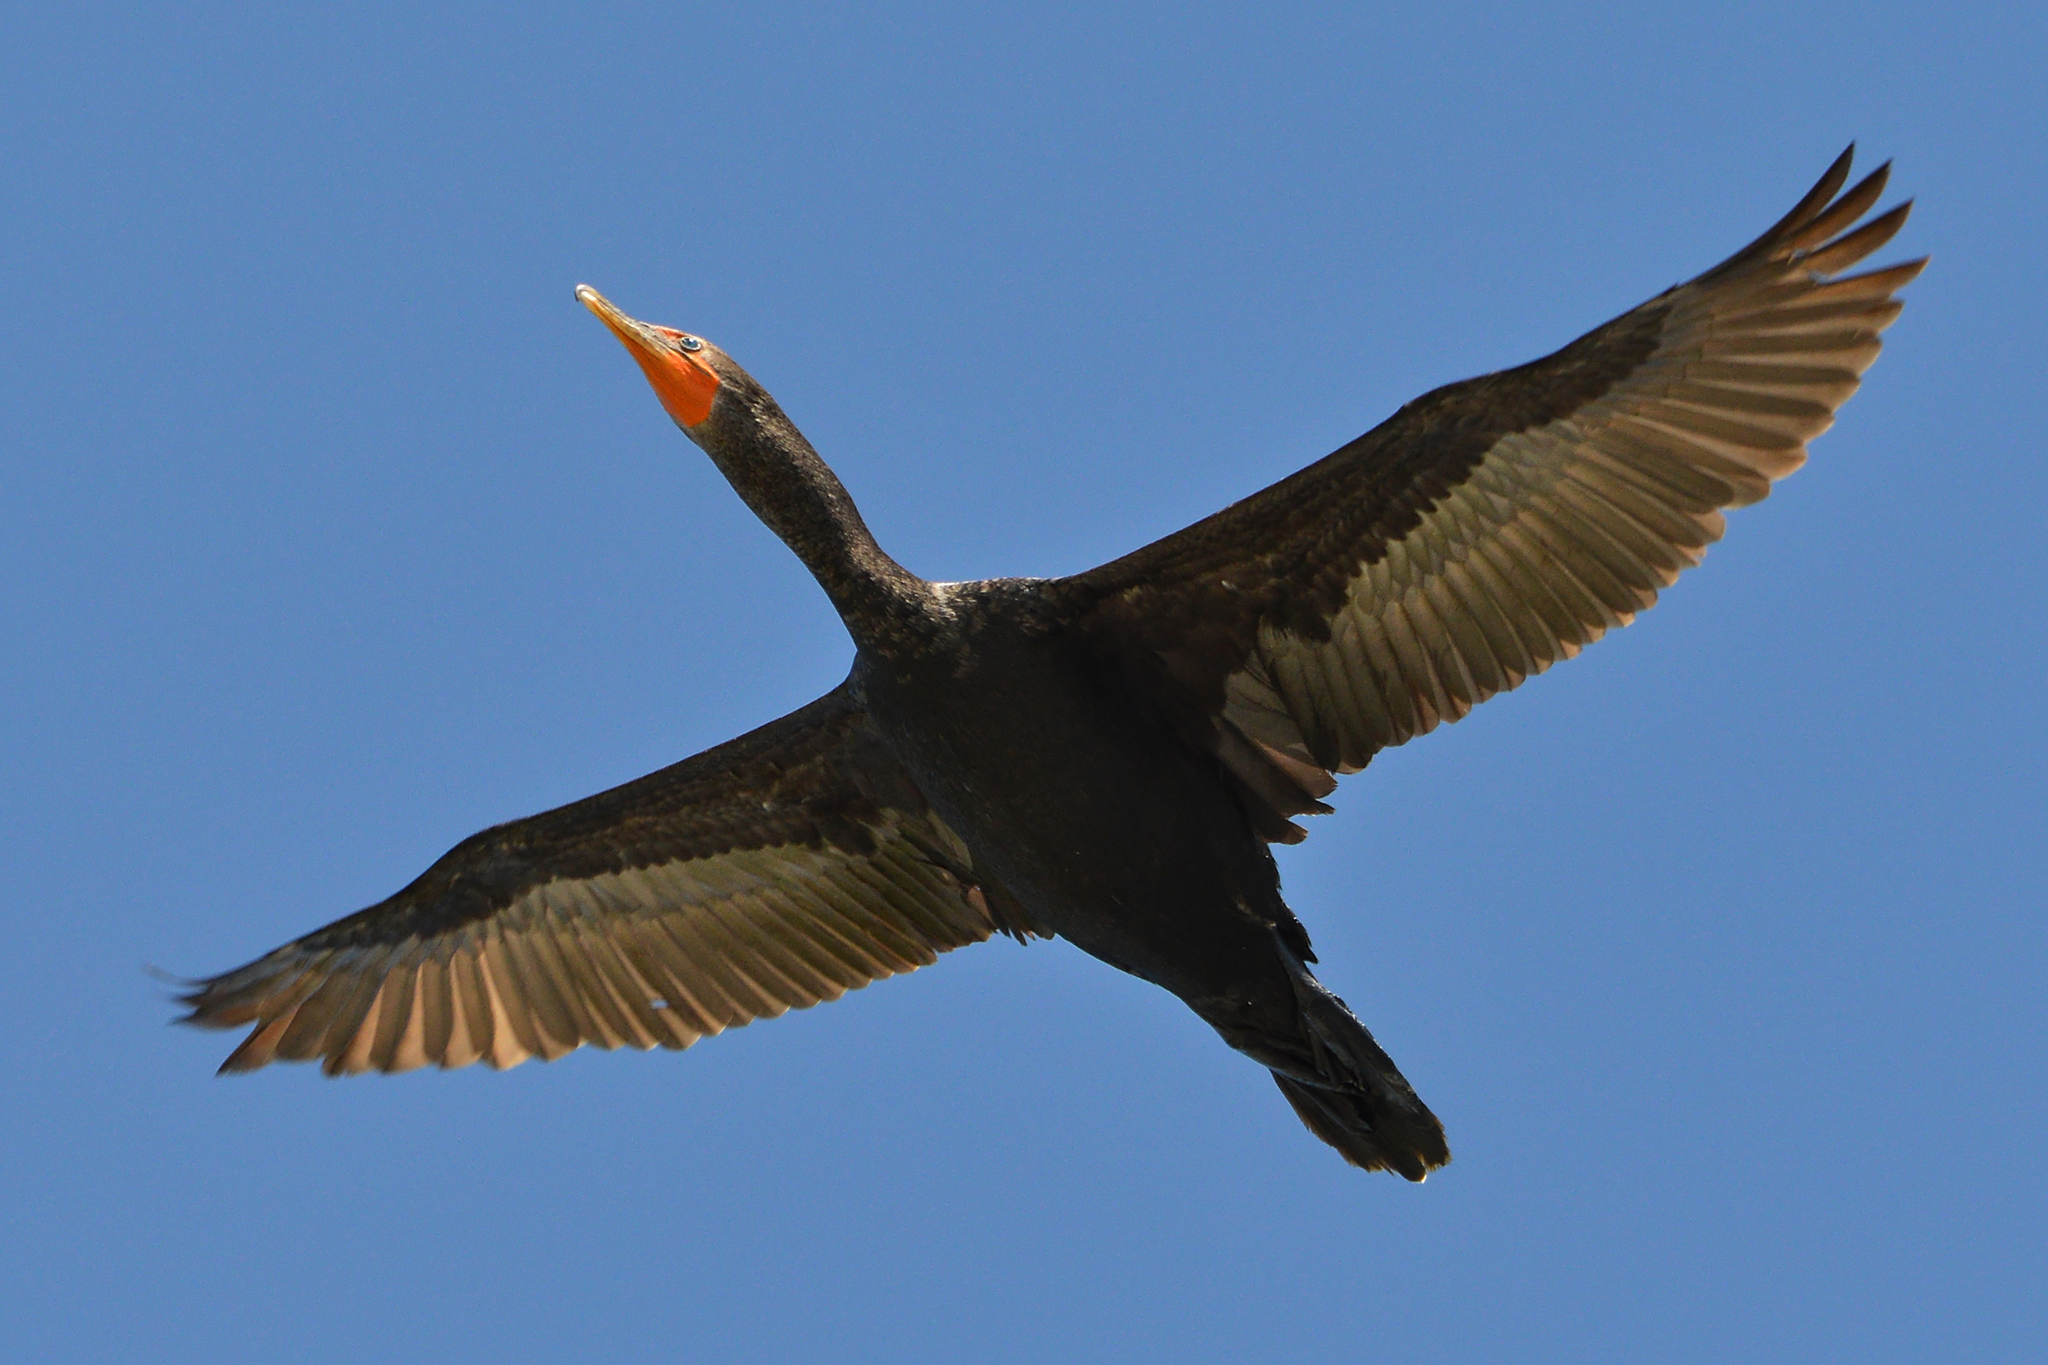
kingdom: Animalia
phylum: Chordata
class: Aves
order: Suliformes
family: Phalacrocoracidae
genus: Phalacrocorax
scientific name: Phalacrocorax auritus
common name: Double-crested cormorant
